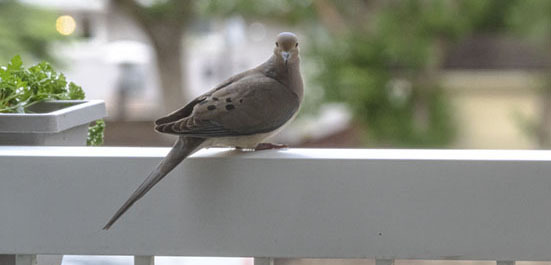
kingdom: Animalia
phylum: Chordata
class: Aves
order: Columbiformes
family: Columbidae
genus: Zenaida
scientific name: Zenaida macroura
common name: Mourning dove
